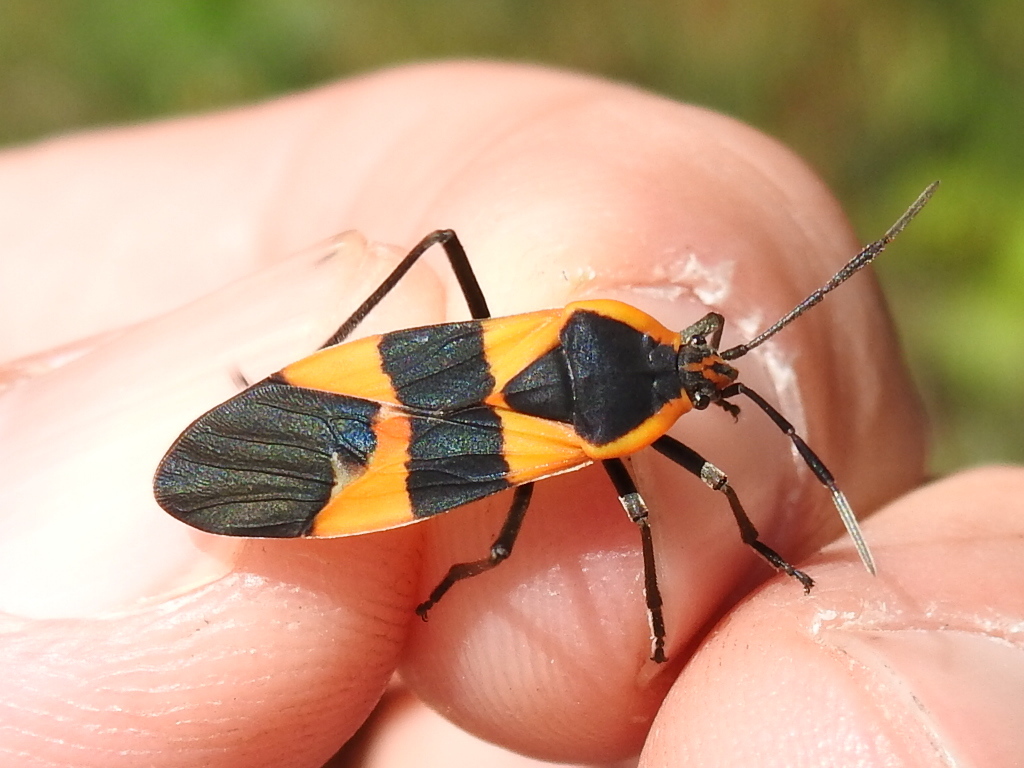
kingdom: Animalia
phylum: Arthropoda
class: Insecta
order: Hemiptera
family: Lygaeidae
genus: Oncopeltus
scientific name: Oncopeltus fasciatus
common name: Large milkweed bug
